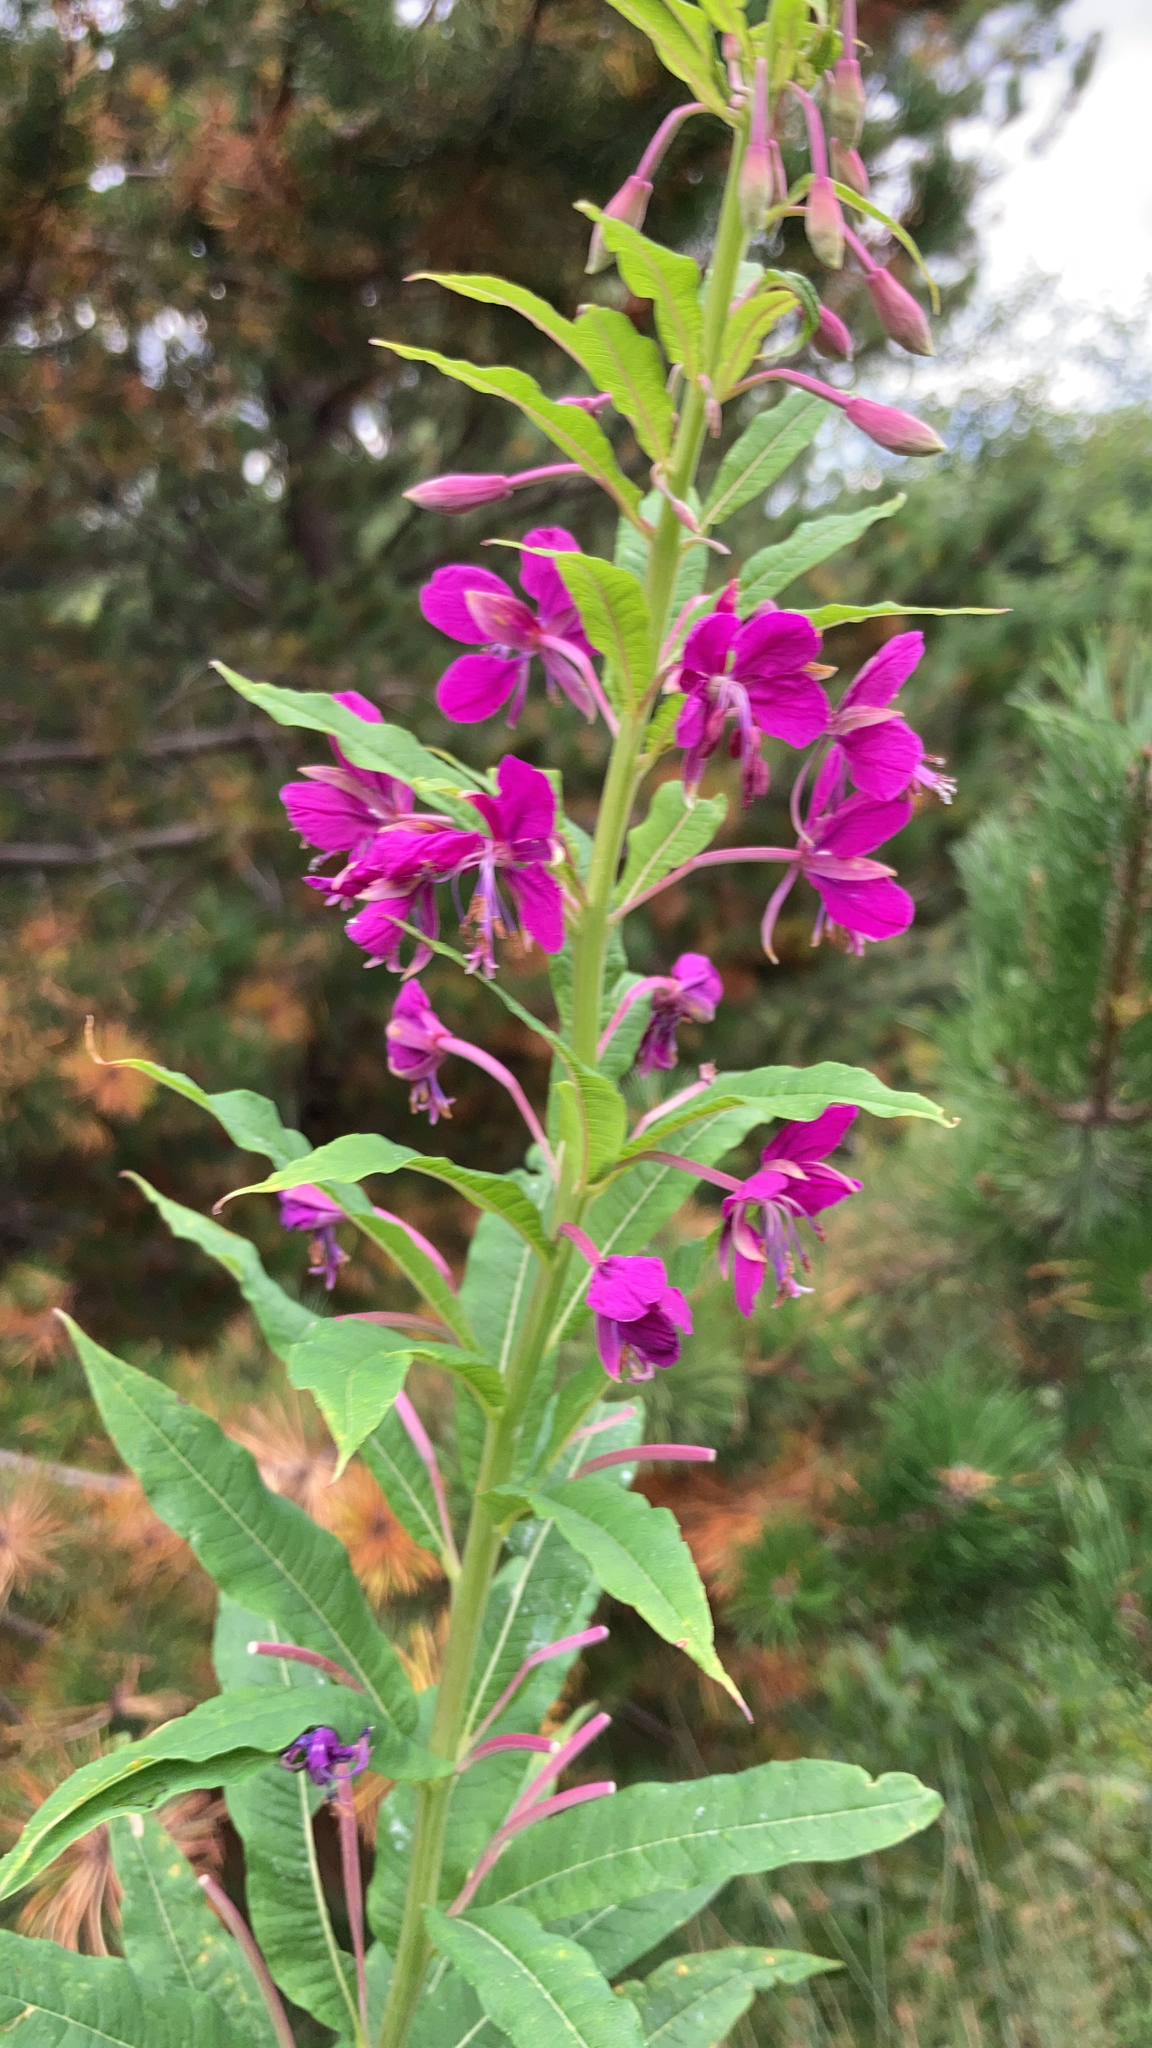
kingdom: Plantae
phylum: Tracheophyta
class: Magnoliopsida
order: Myrtales
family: Onagraceae
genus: Chamaenerion
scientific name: Chamaenerion angustifolium
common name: Fireweed
